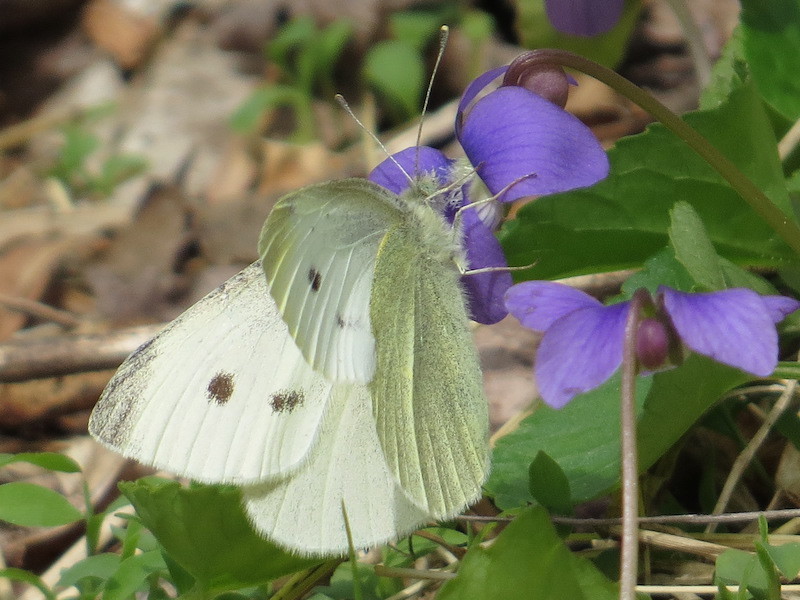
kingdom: Animalia
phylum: Arthropoda
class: Insecta
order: Lepidoptera
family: Pieridae
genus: Pieris
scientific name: Pieris rapae
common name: Small white
